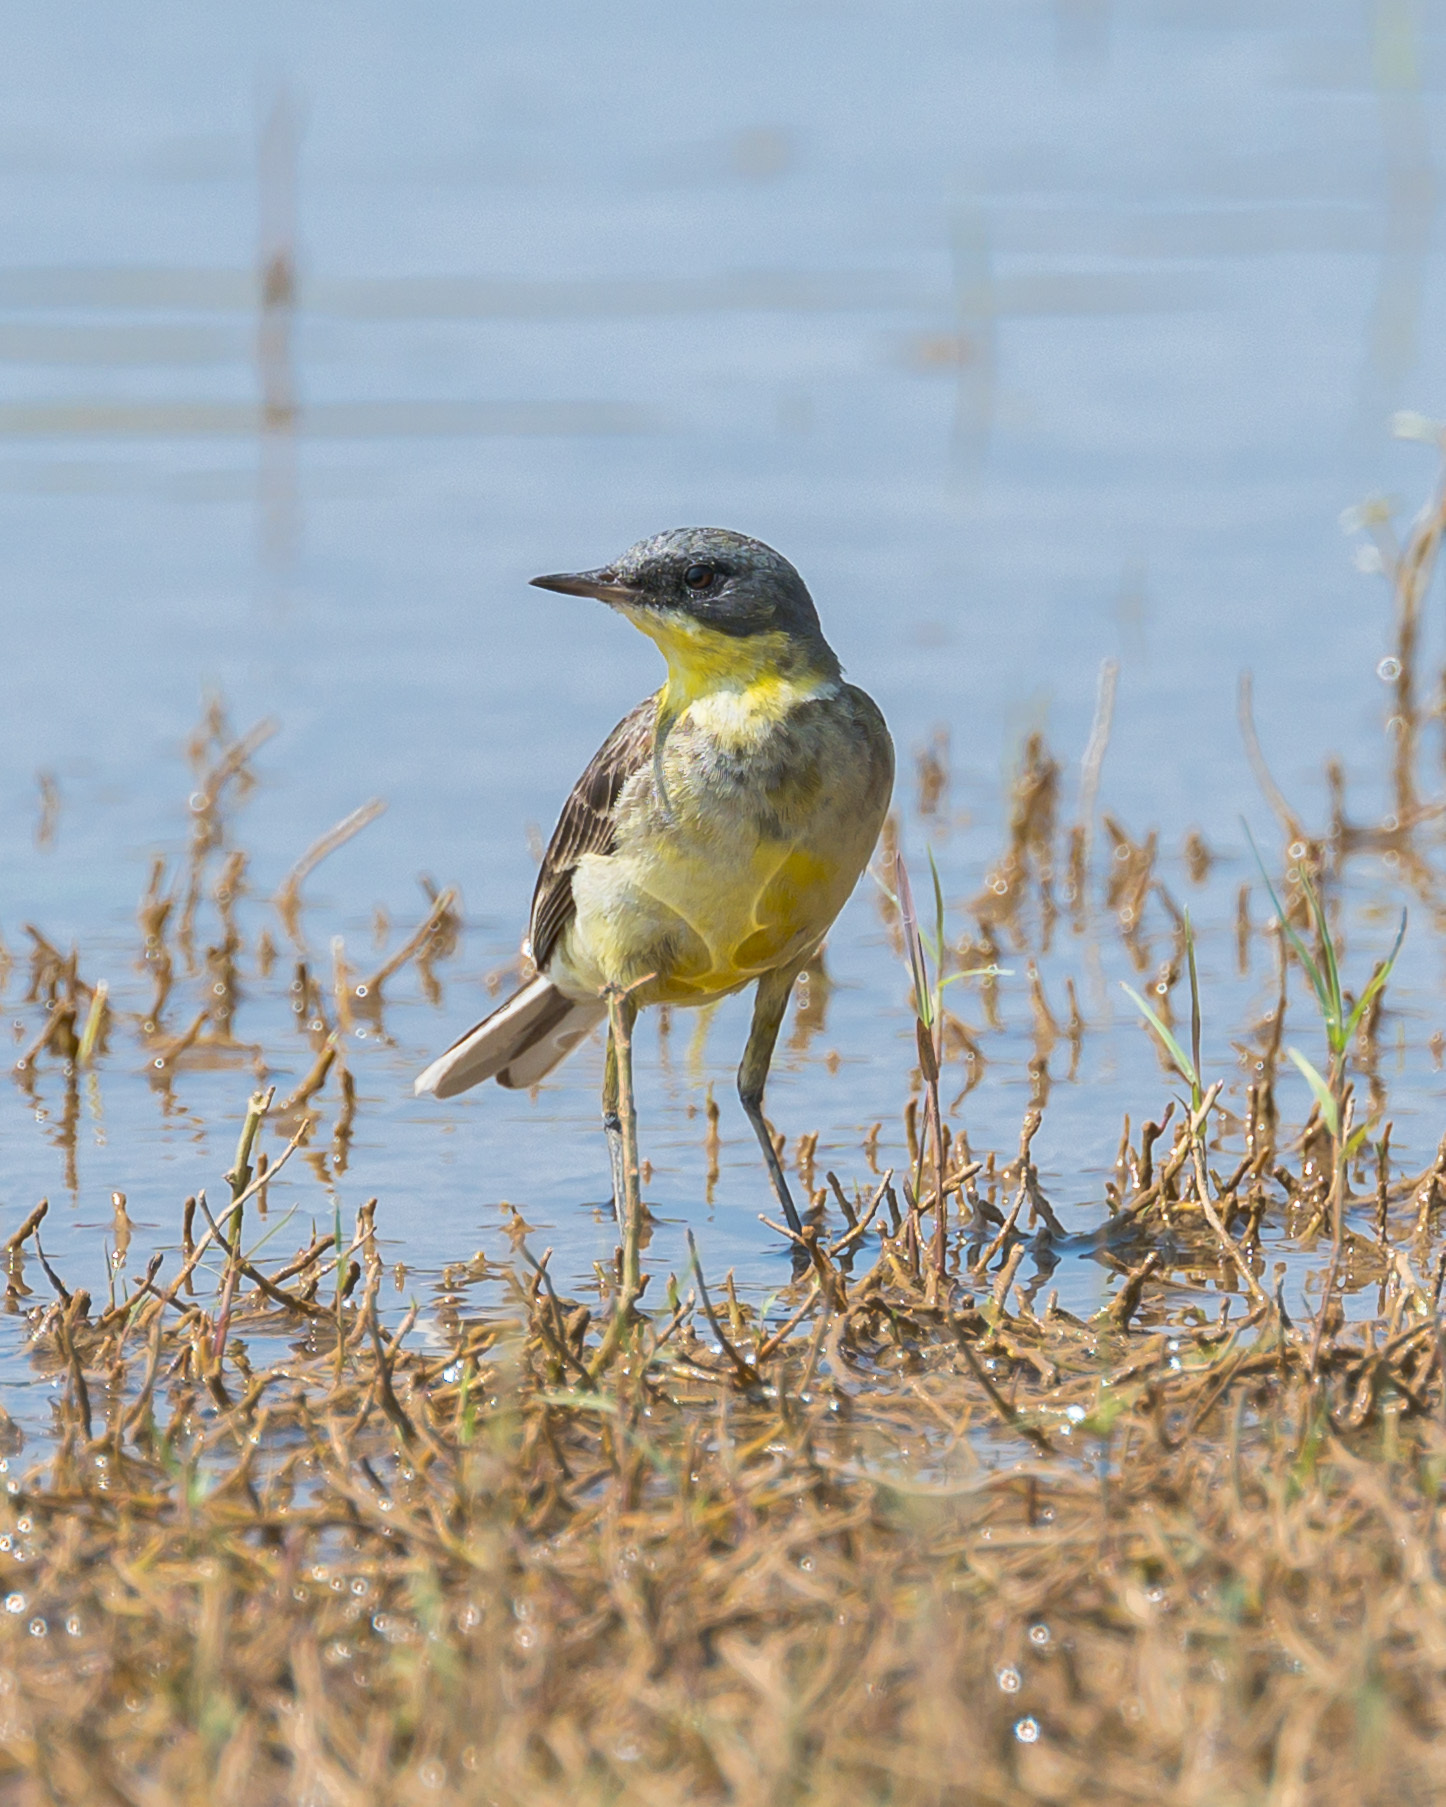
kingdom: Animalia
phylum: Chordata
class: Aves
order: Passeriformes
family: Motacillidae
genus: Motacilla
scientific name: Motacilla flava
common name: Western yellow wagtail
